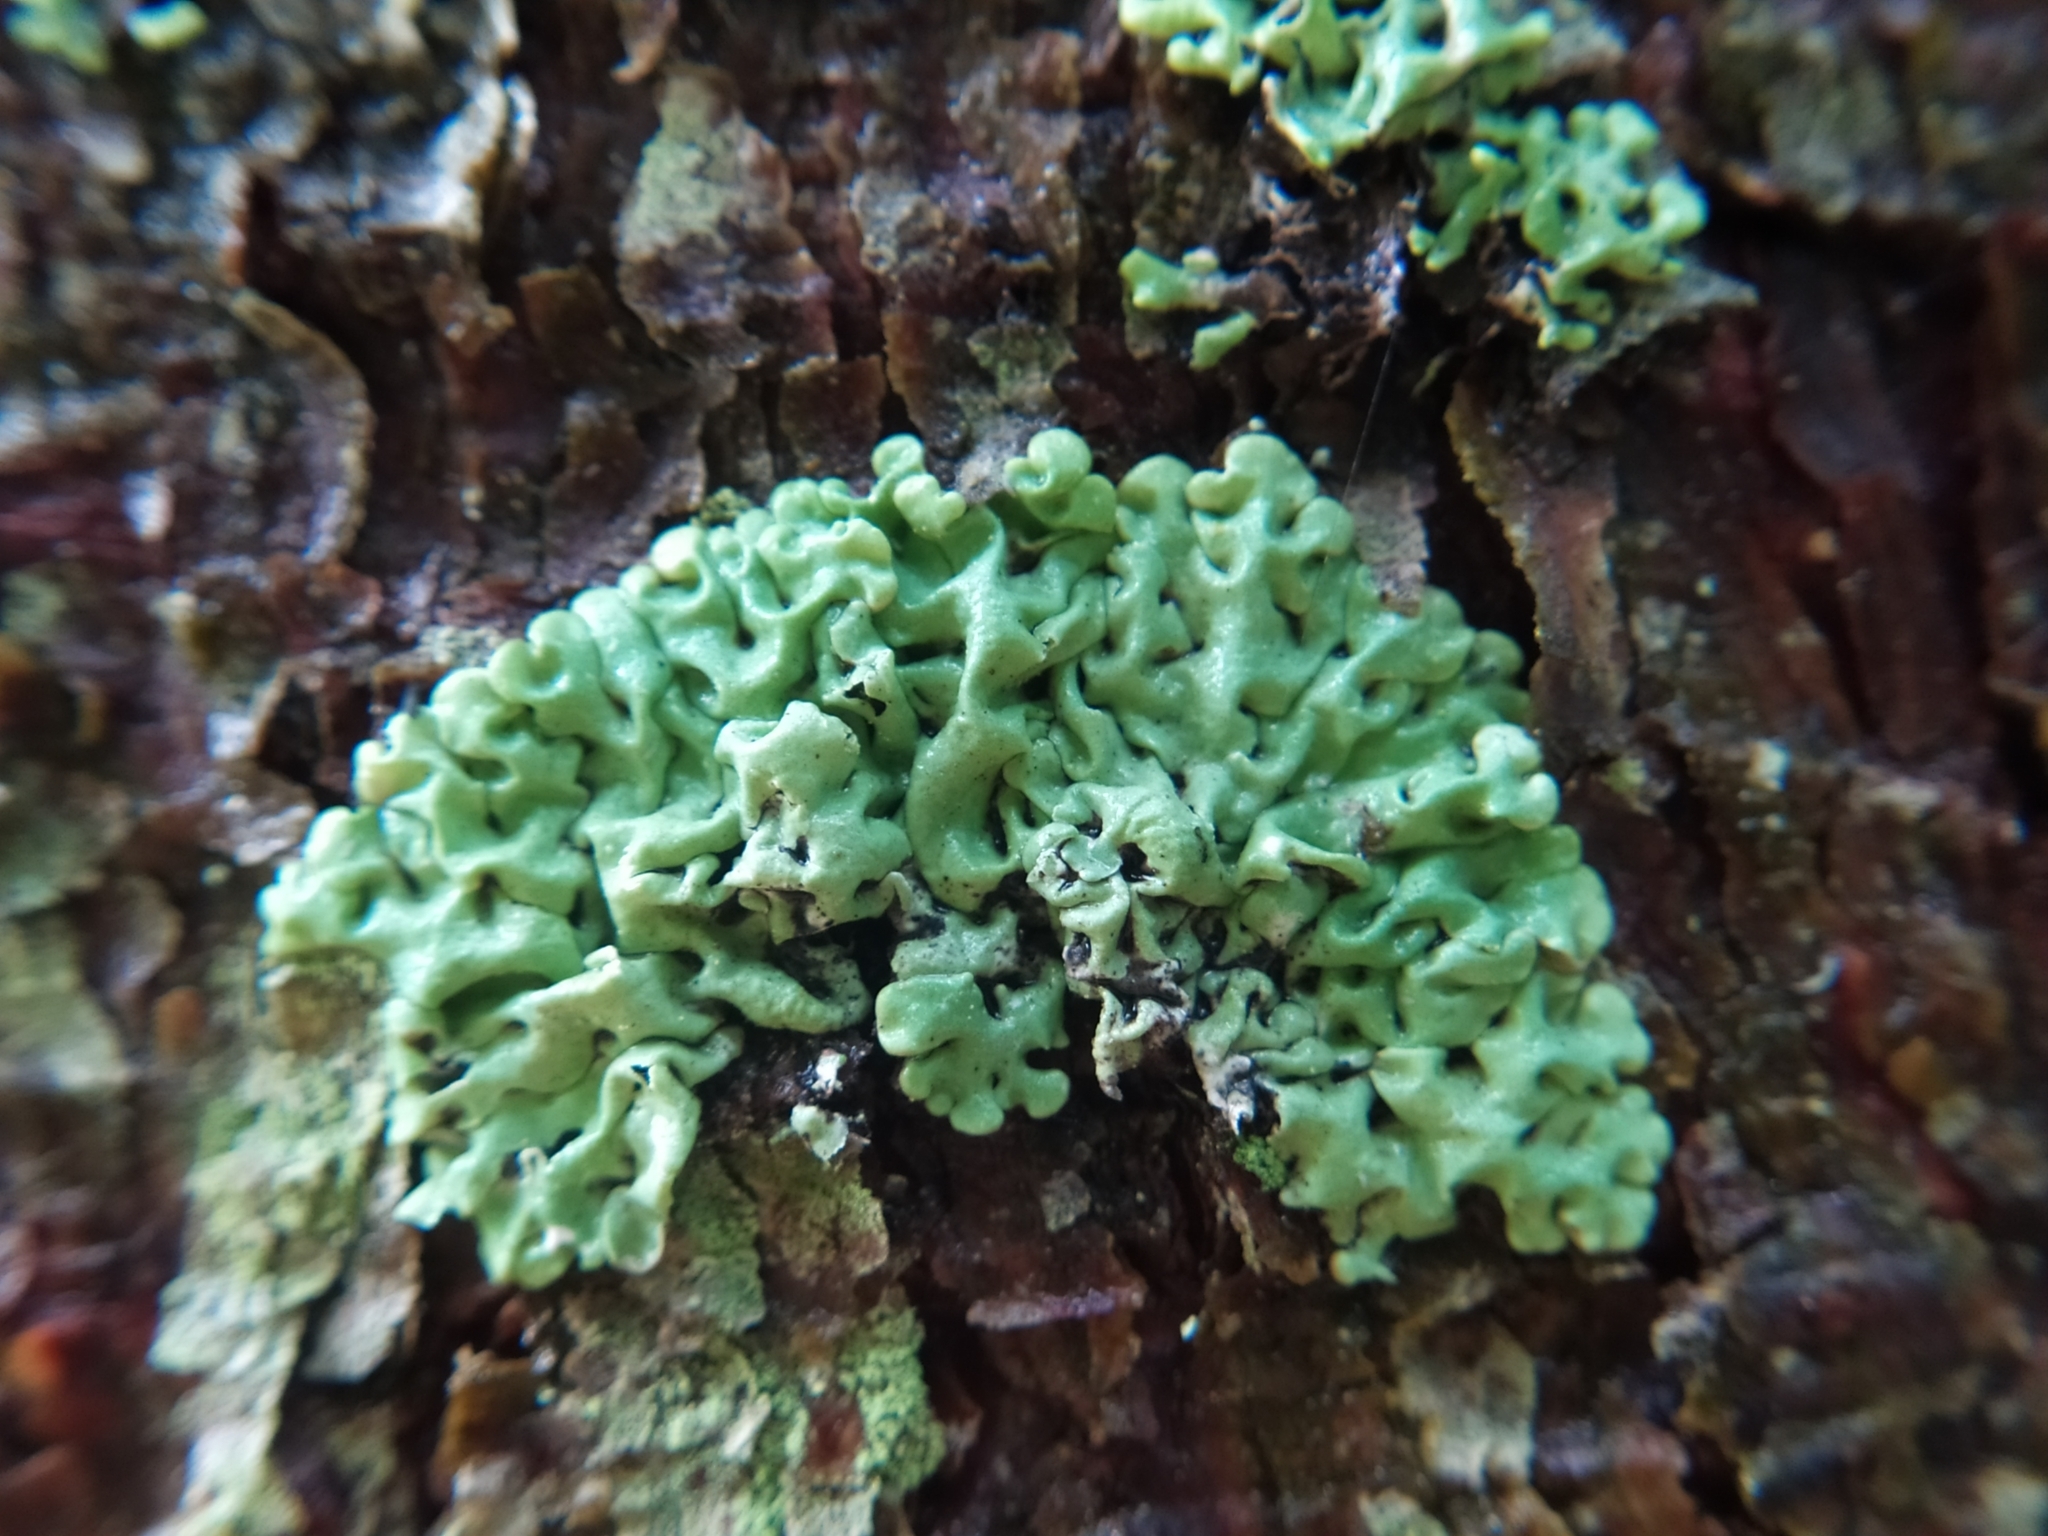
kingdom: Fungi
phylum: Ascomycota
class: Lecanoromycetes
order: Lecanorales
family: Parmeliaceae
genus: Hypogymnia
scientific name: Hypogymnia physodes
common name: Dark crottle
